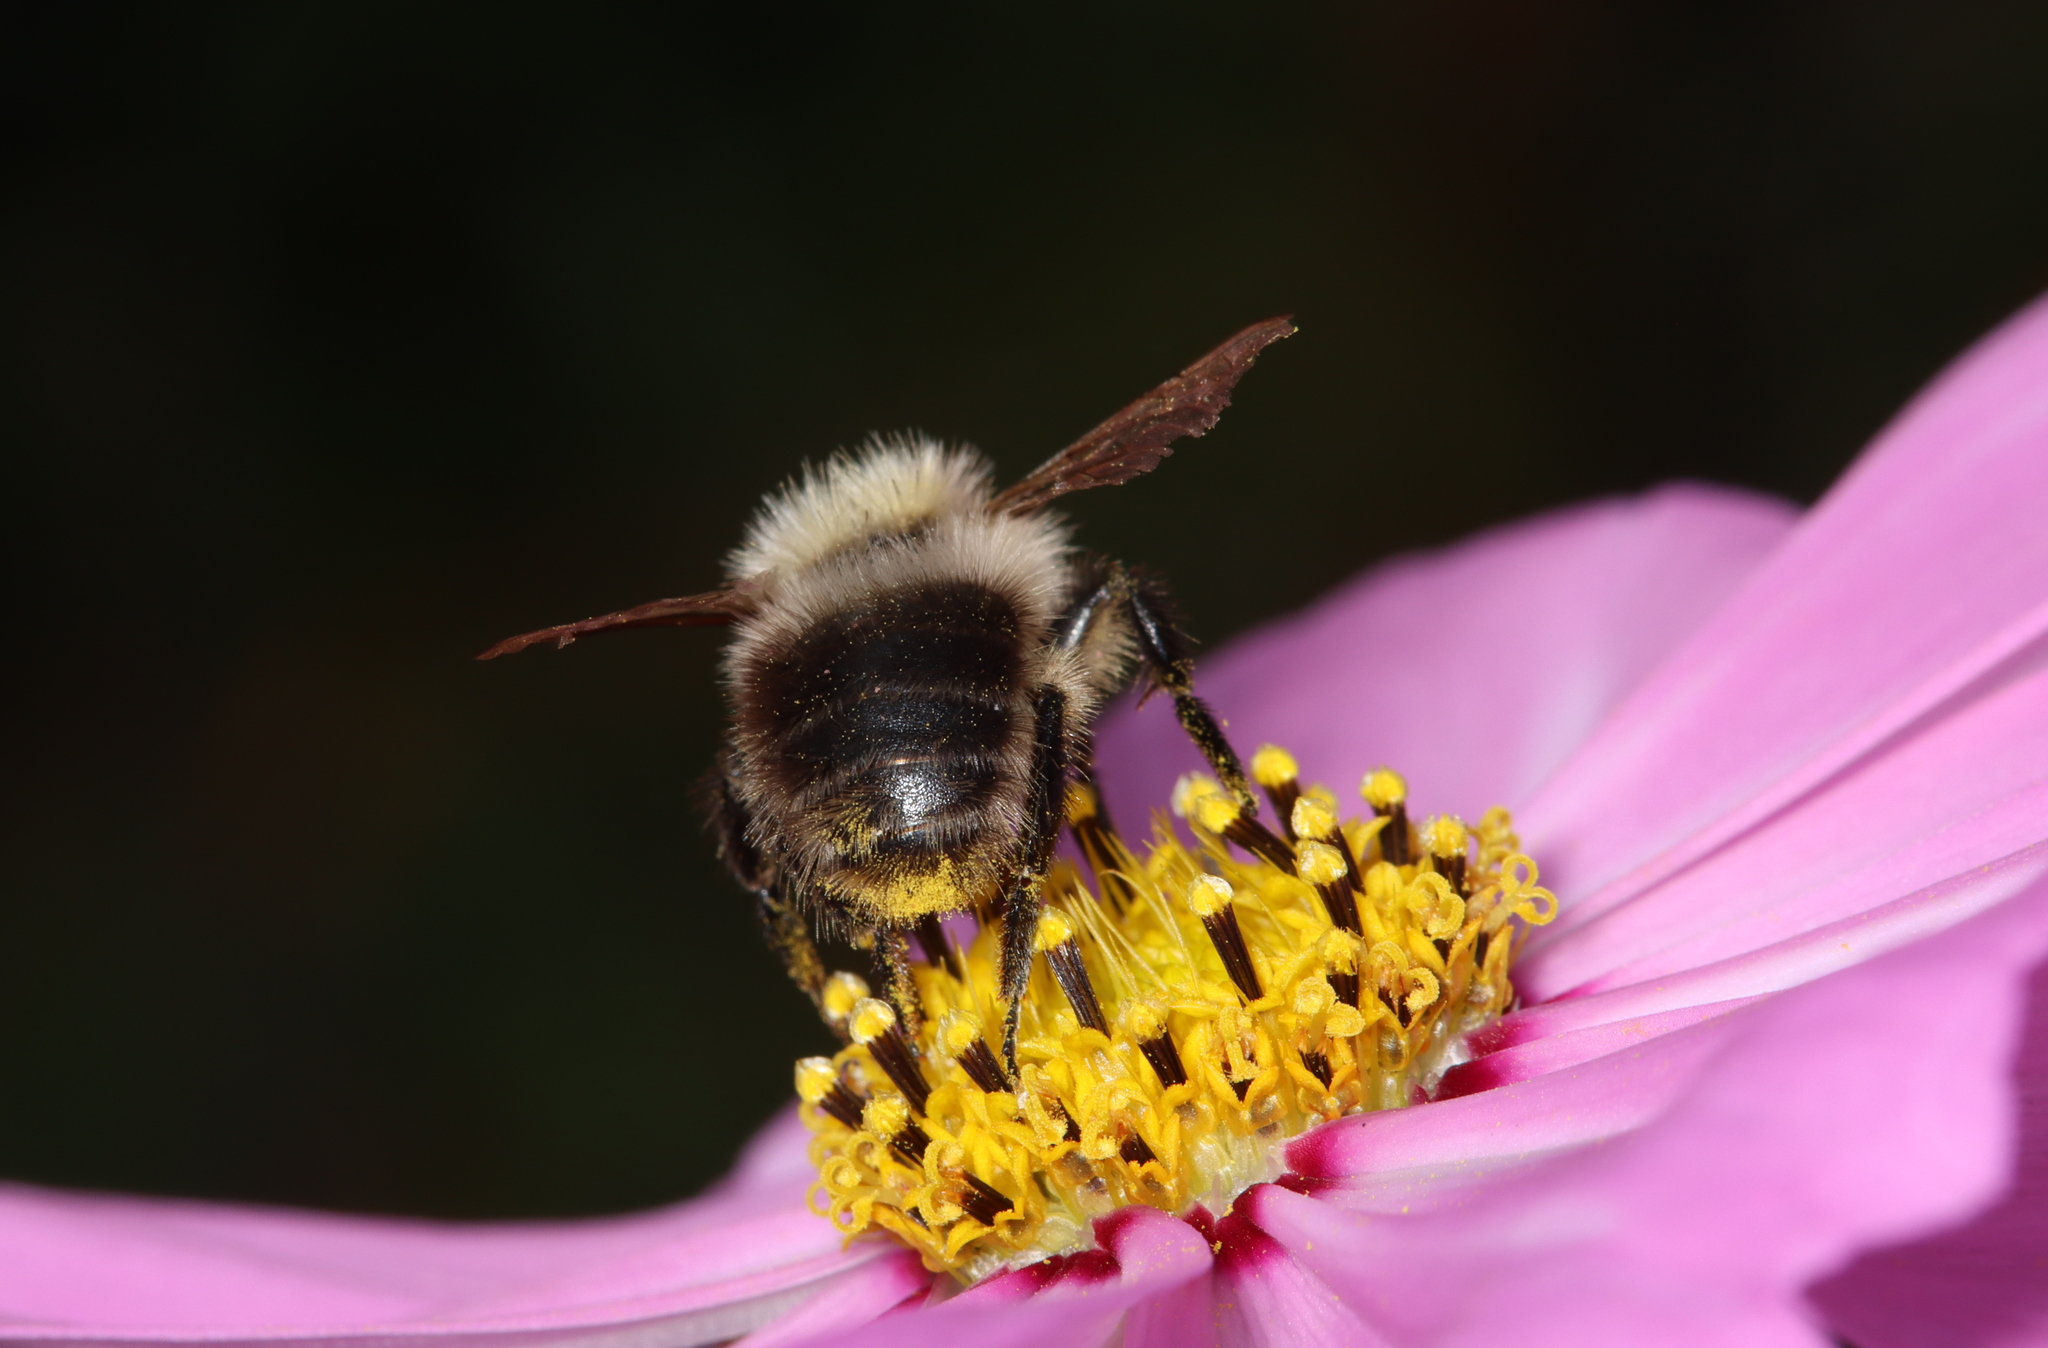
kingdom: Animalia
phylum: Arthropoda
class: Insecta
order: Hymenoptera
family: Apidae
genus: Bombus
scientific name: Bombus pascuorum
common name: Common carder bee
